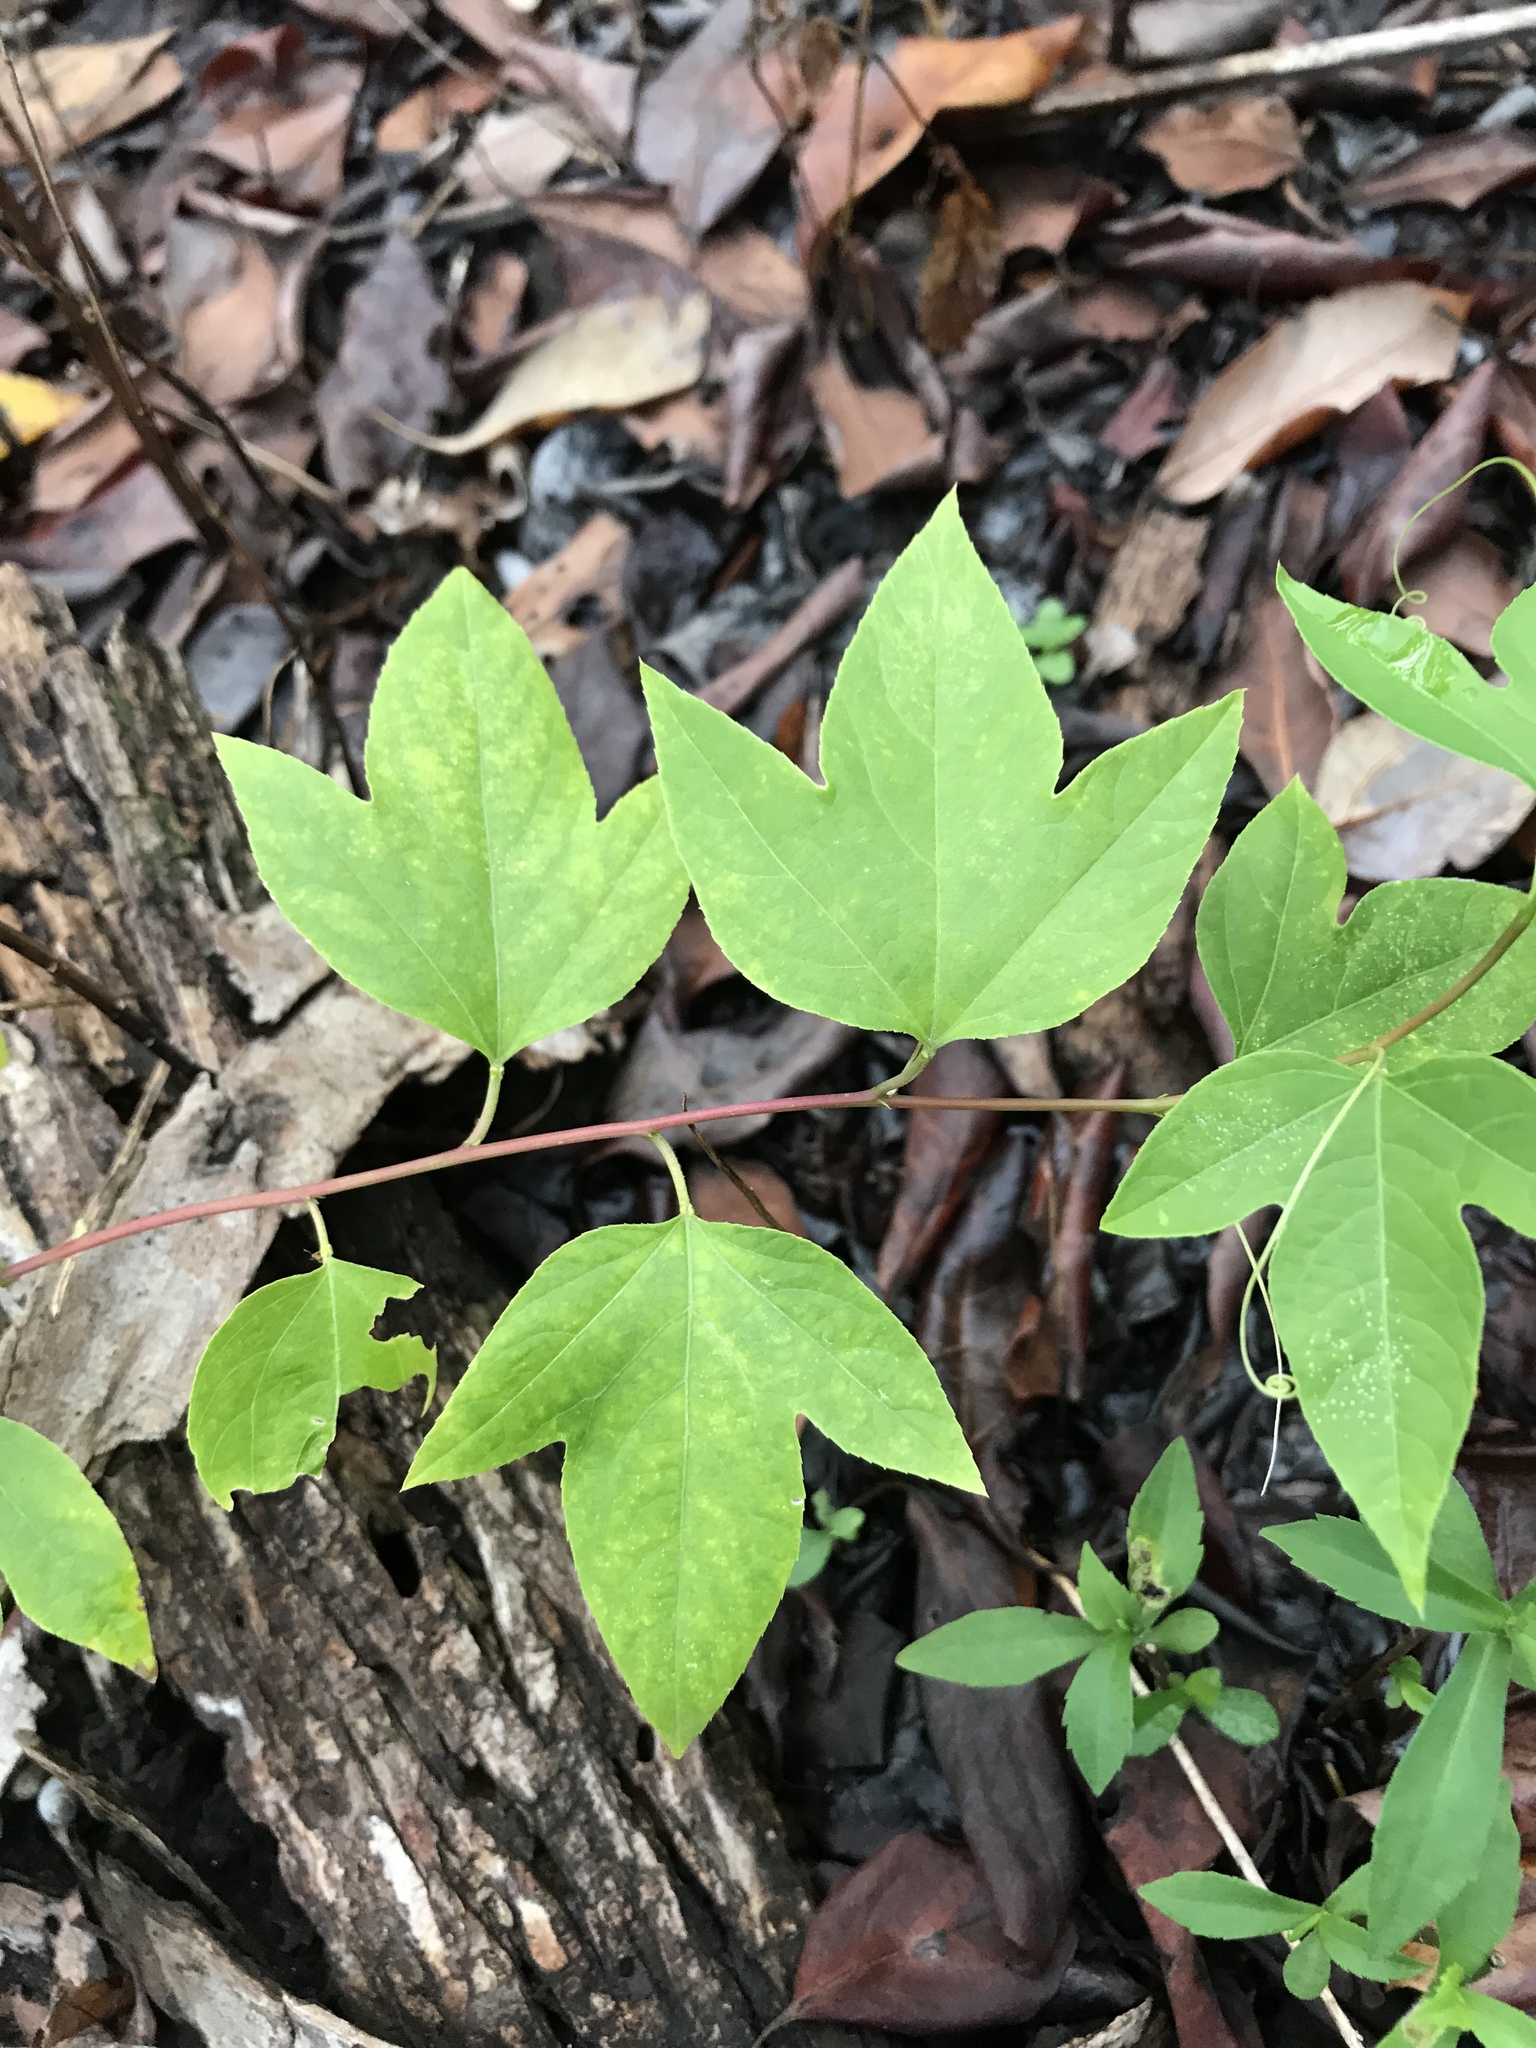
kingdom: Plantae
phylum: Tracheophyta
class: Magnoliopsida
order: Malpighiales
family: Passifloraceae
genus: Passiflora
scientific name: Passiflora incarnata
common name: Apricot-vine
